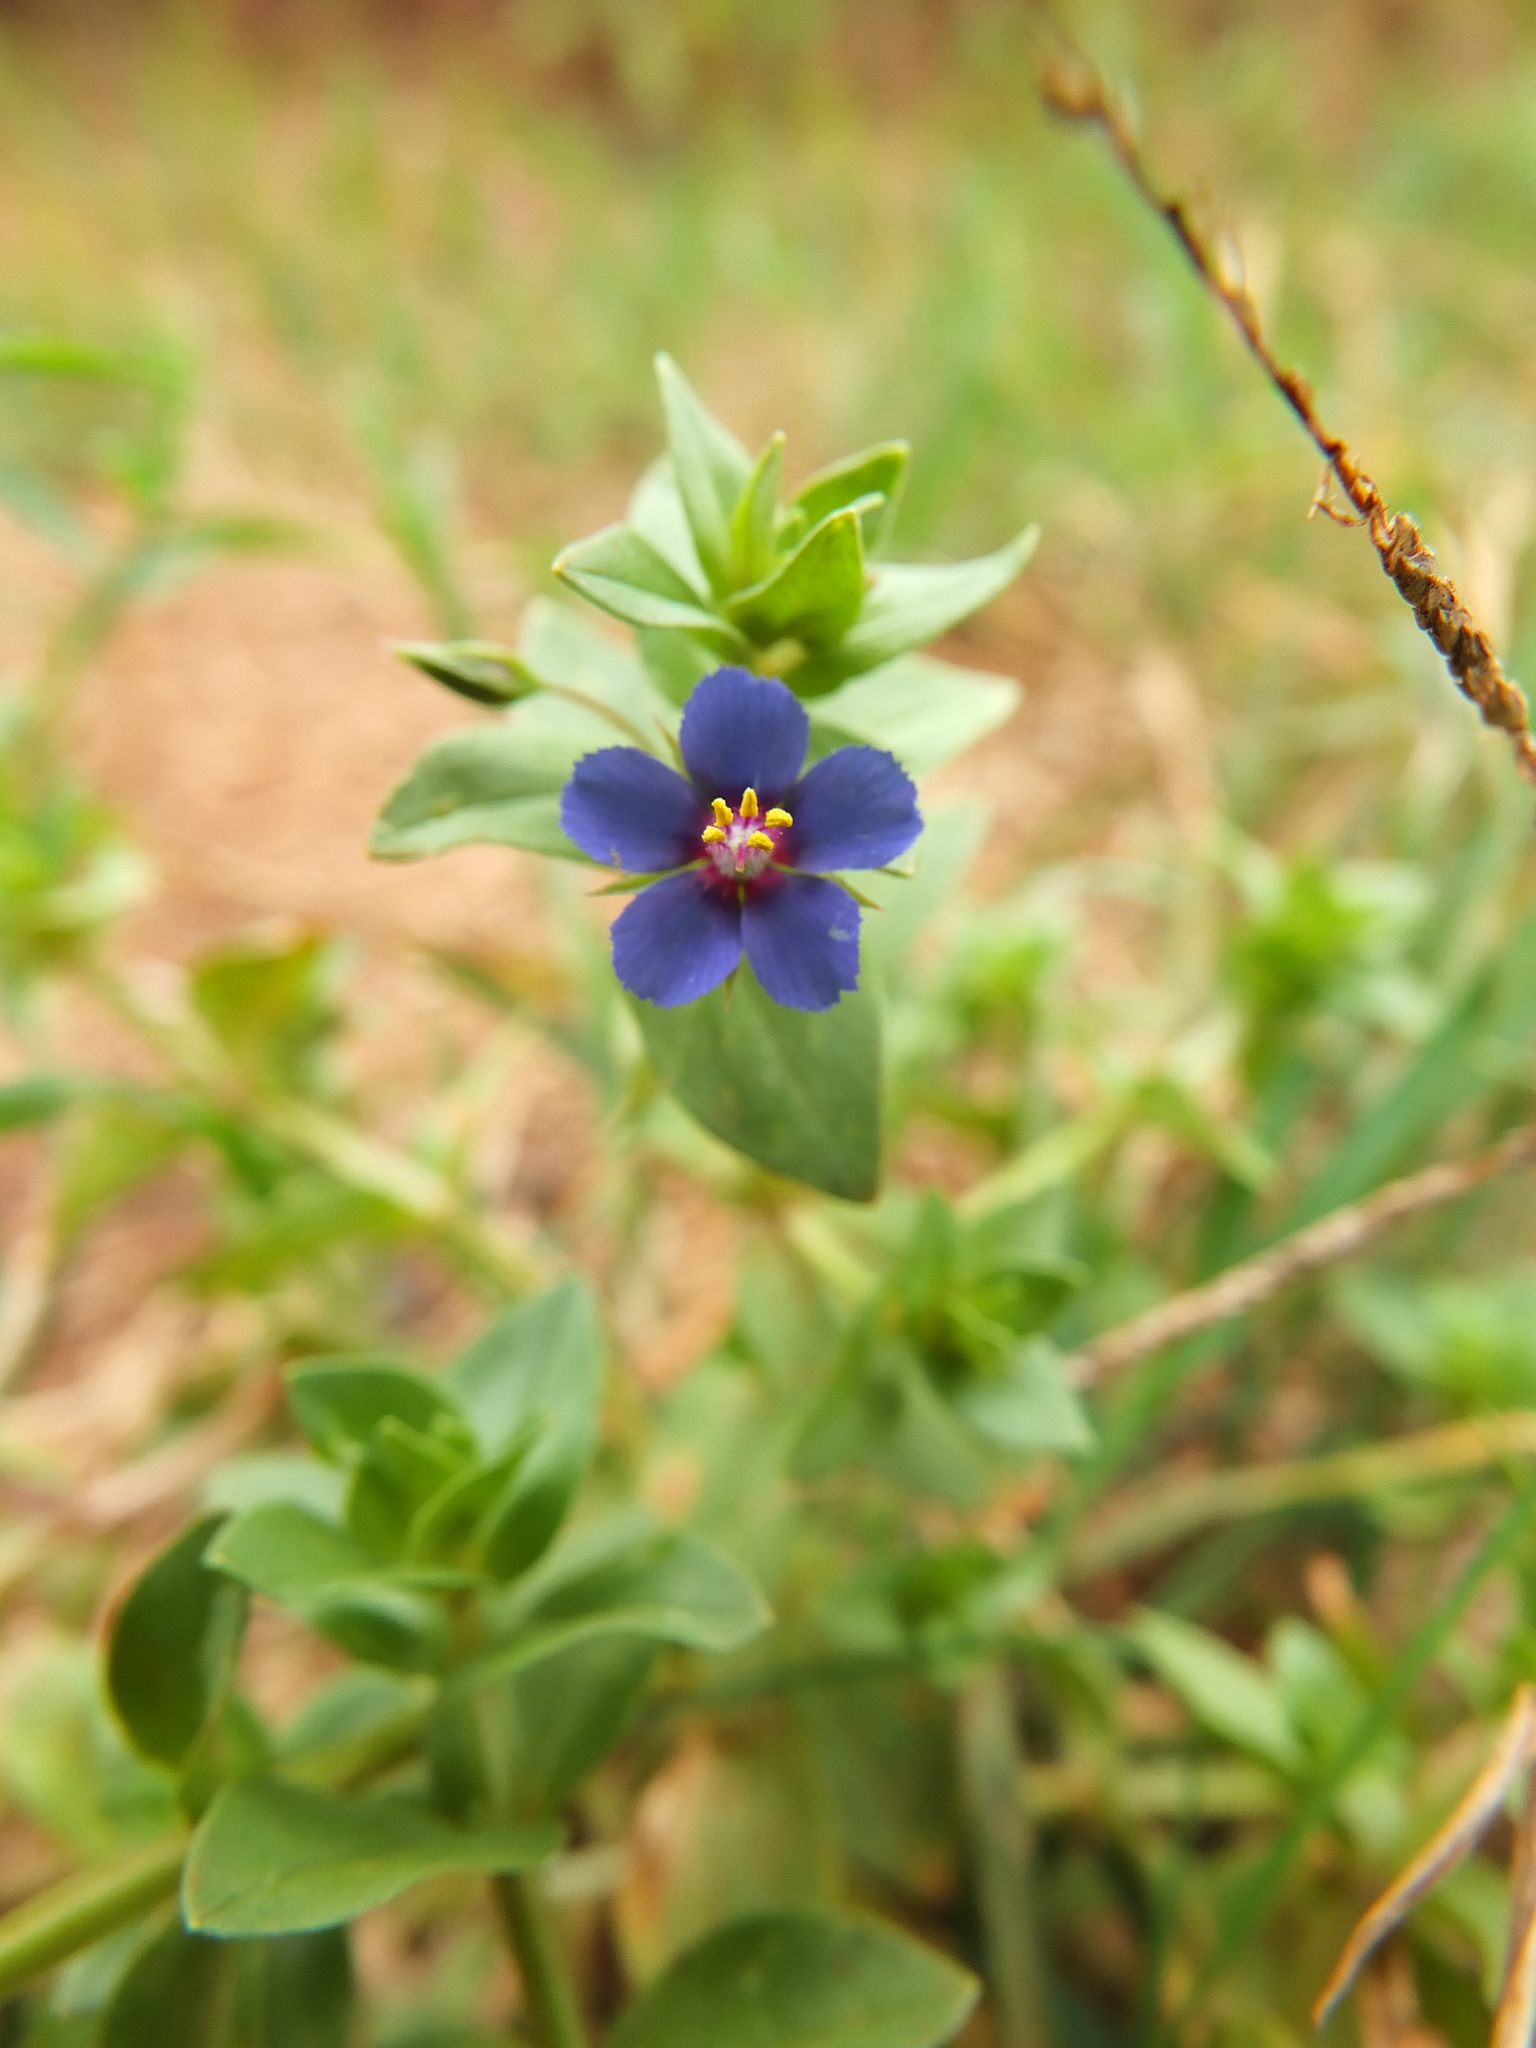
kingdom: Plantae
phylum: Tracheophyta
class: Magnoliopsida
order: Ericales
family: Primulaceae
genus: Lysimachia
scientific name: Lysimachia foemina
